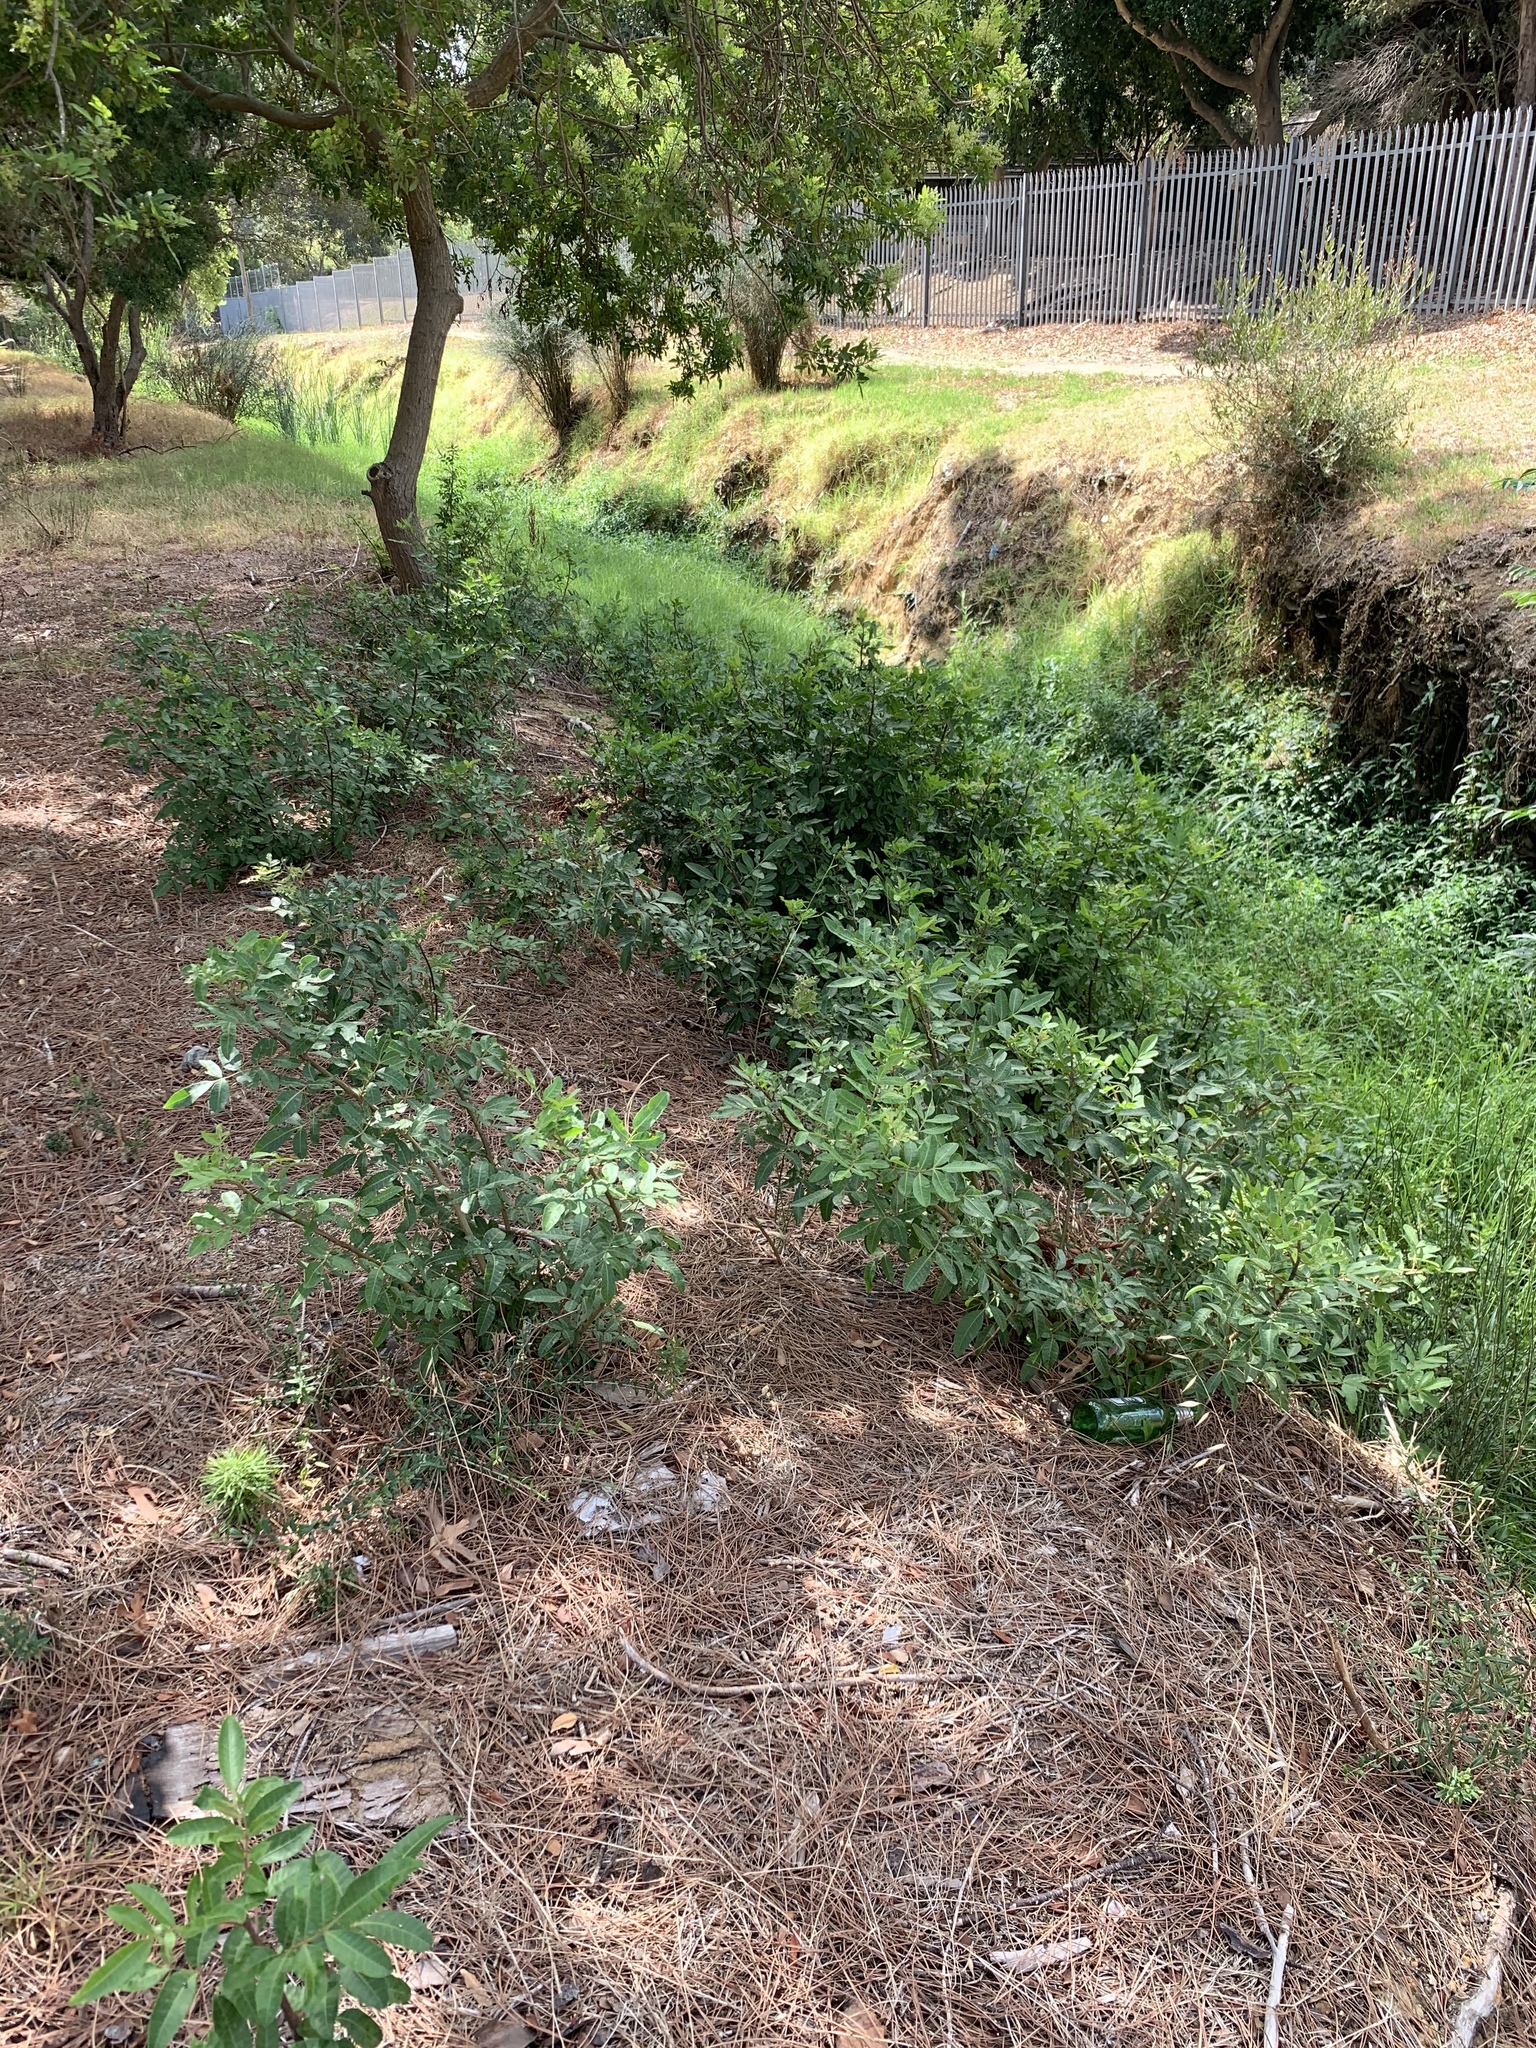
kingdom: Plantae
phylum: Tracheophyta
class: Magnoliopsida
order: Sapindales
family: Anacardiaceae
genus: Schinus
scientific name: Schinus terebinthifolia
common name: Brazilian peppertree
